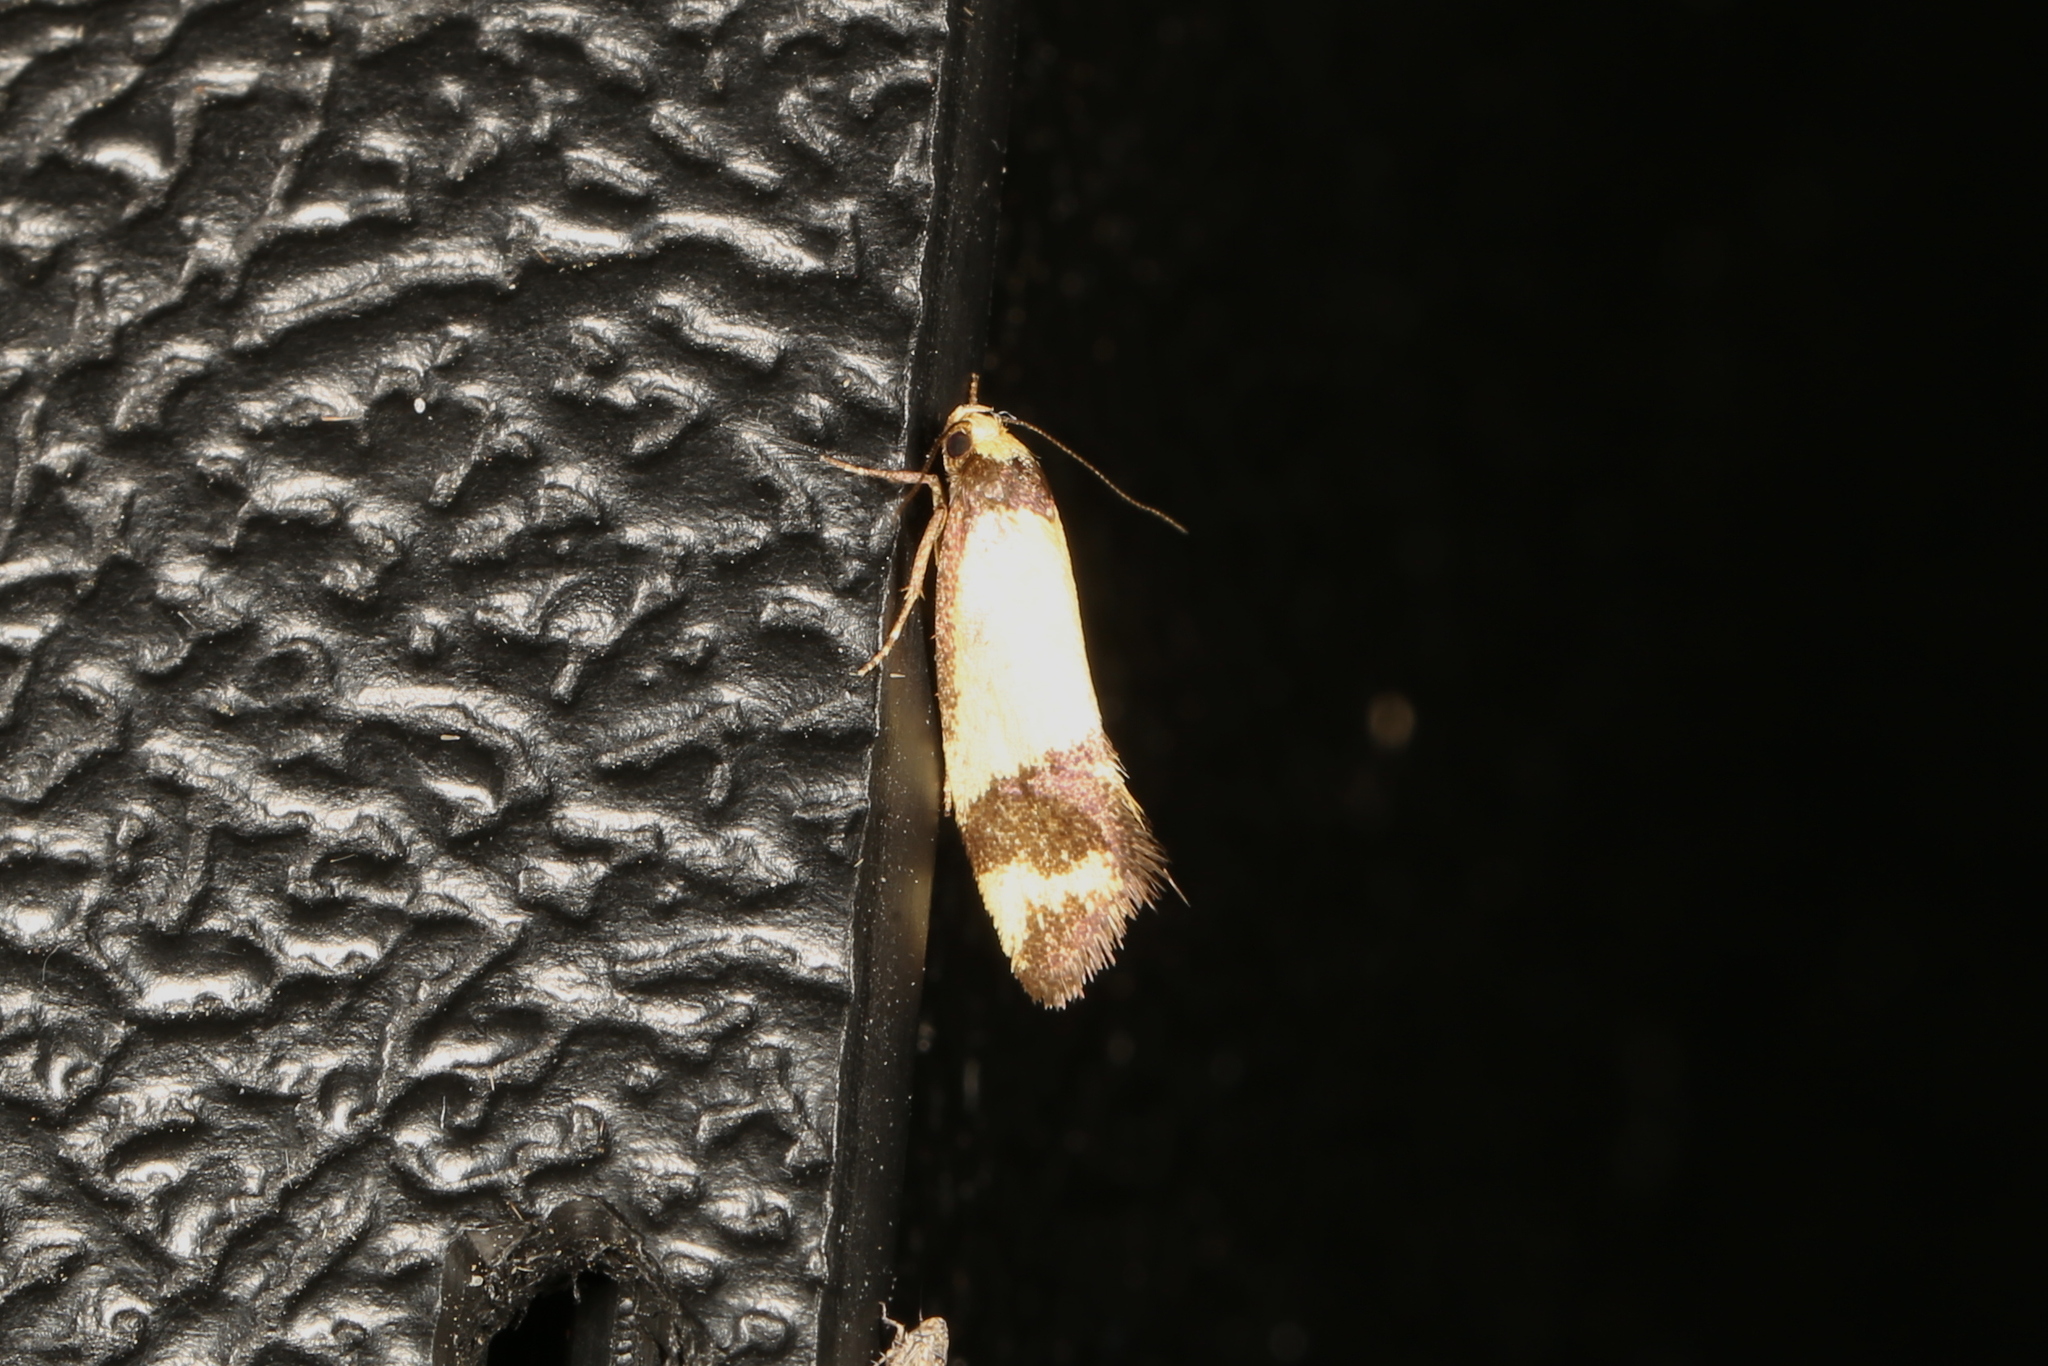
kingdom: Animalia
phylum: Arthropoda
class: Insecta
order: Lepidoptera
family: Oecophoridae
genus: Olbonoma
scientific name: Olbonoma triptycha
